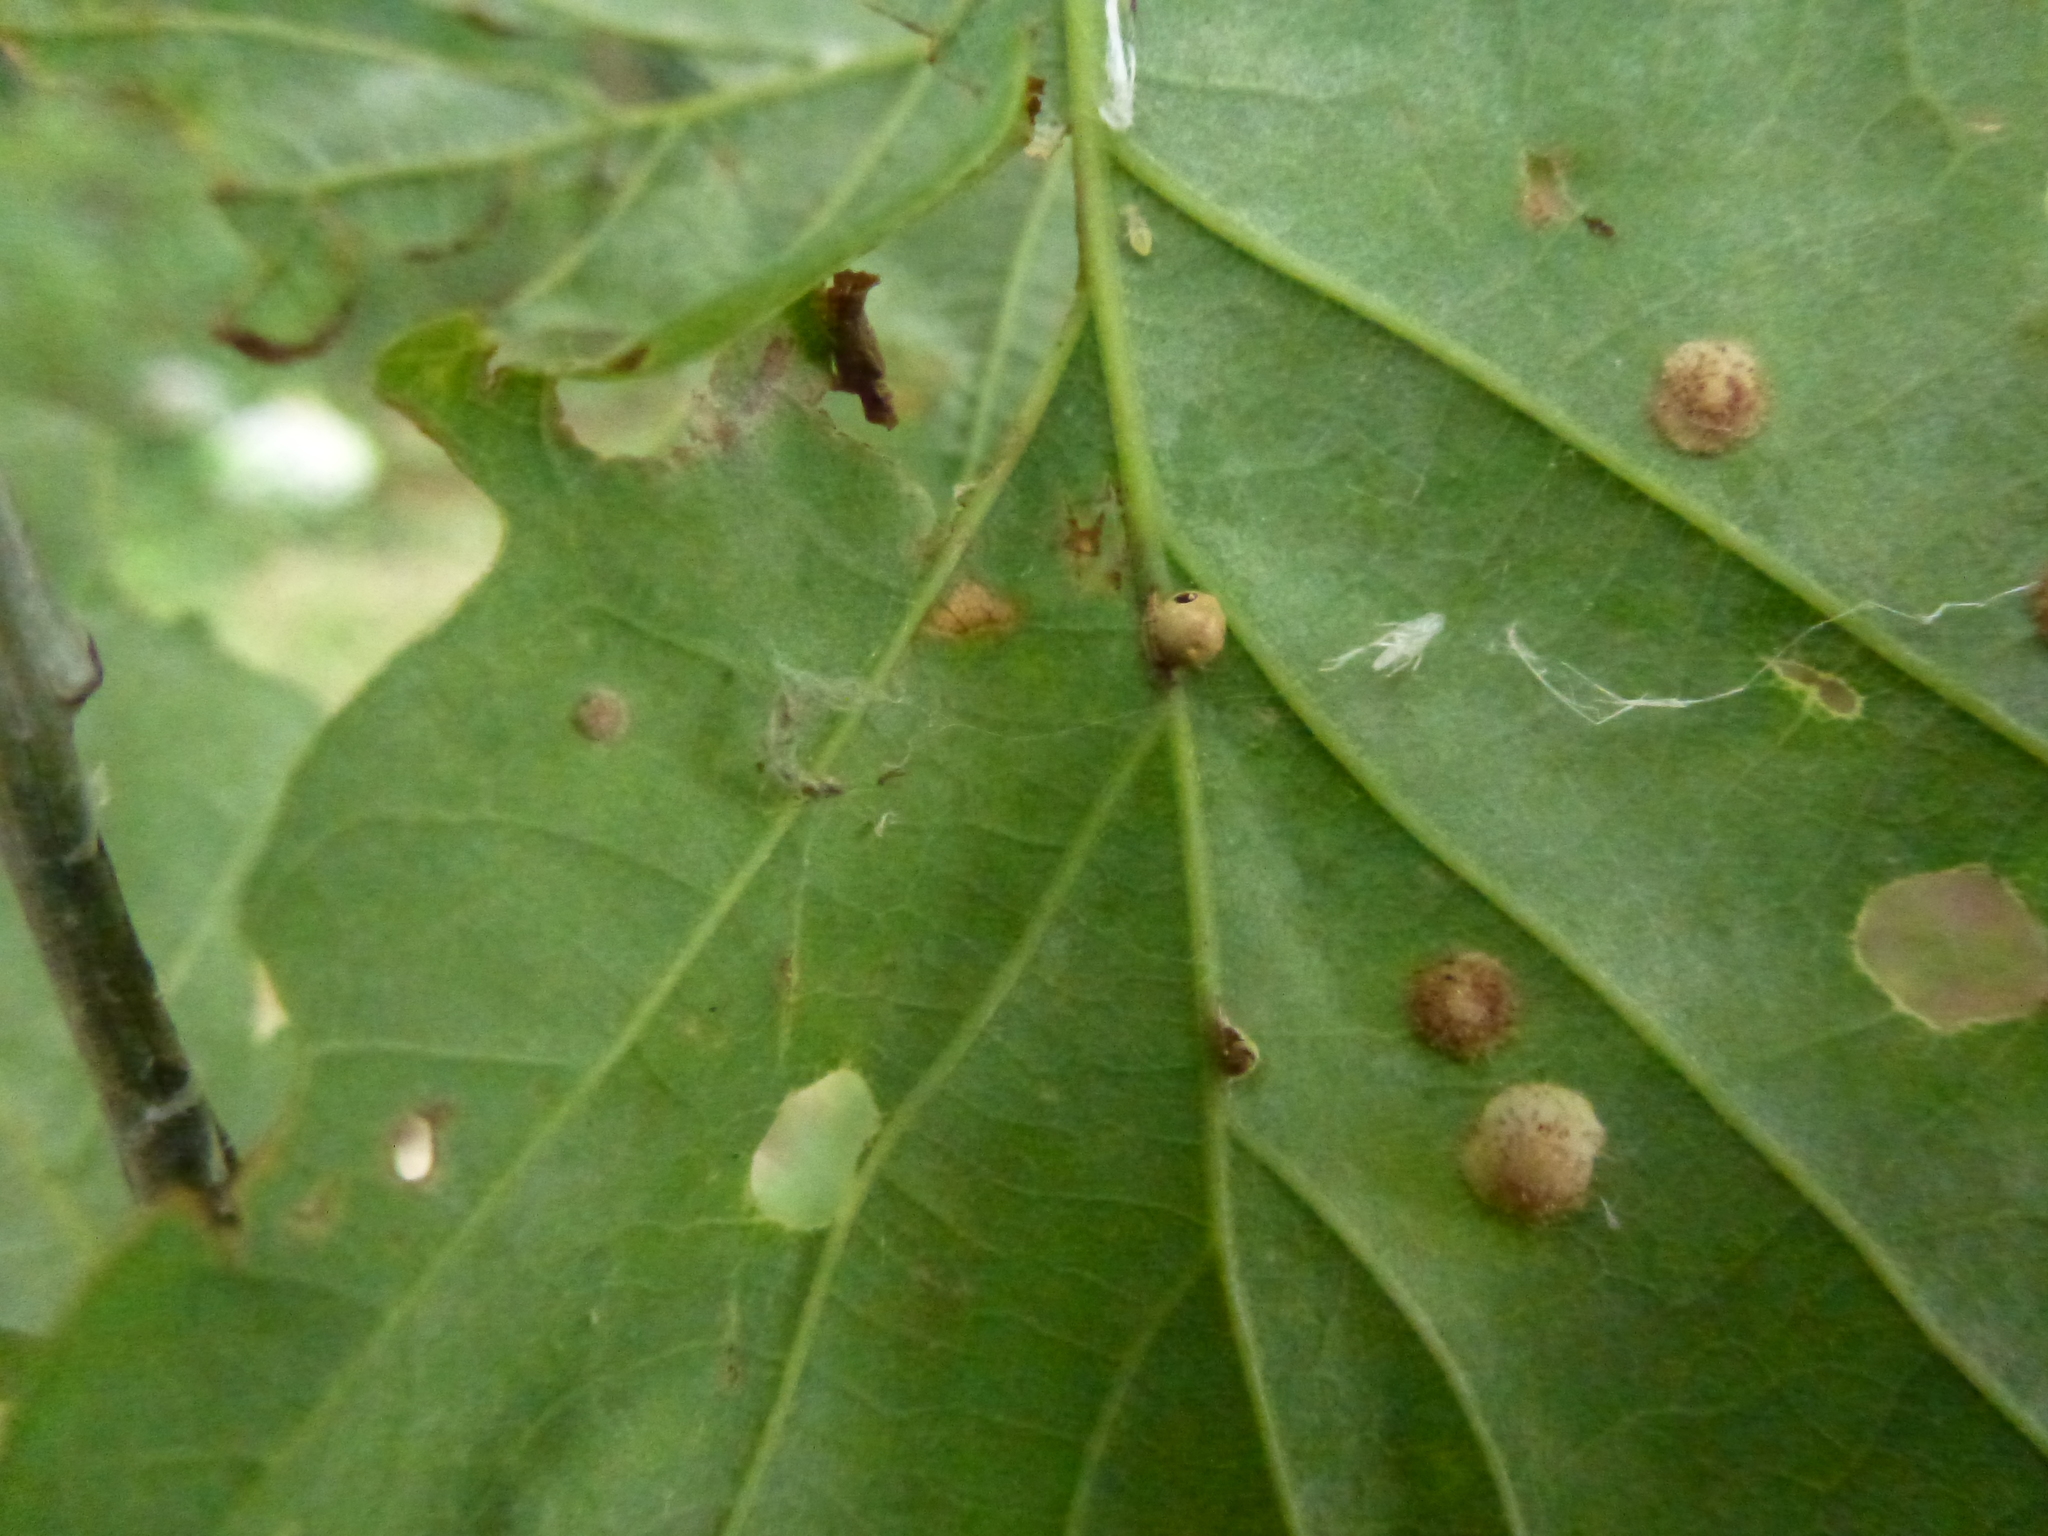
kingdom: Animalia
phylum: Arthropoda
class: Insecta
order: Hymenoptera
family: Cynipidae
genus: Neuroterus
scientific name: Neuroterus quercusbaccarum
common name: Common spangle gall
